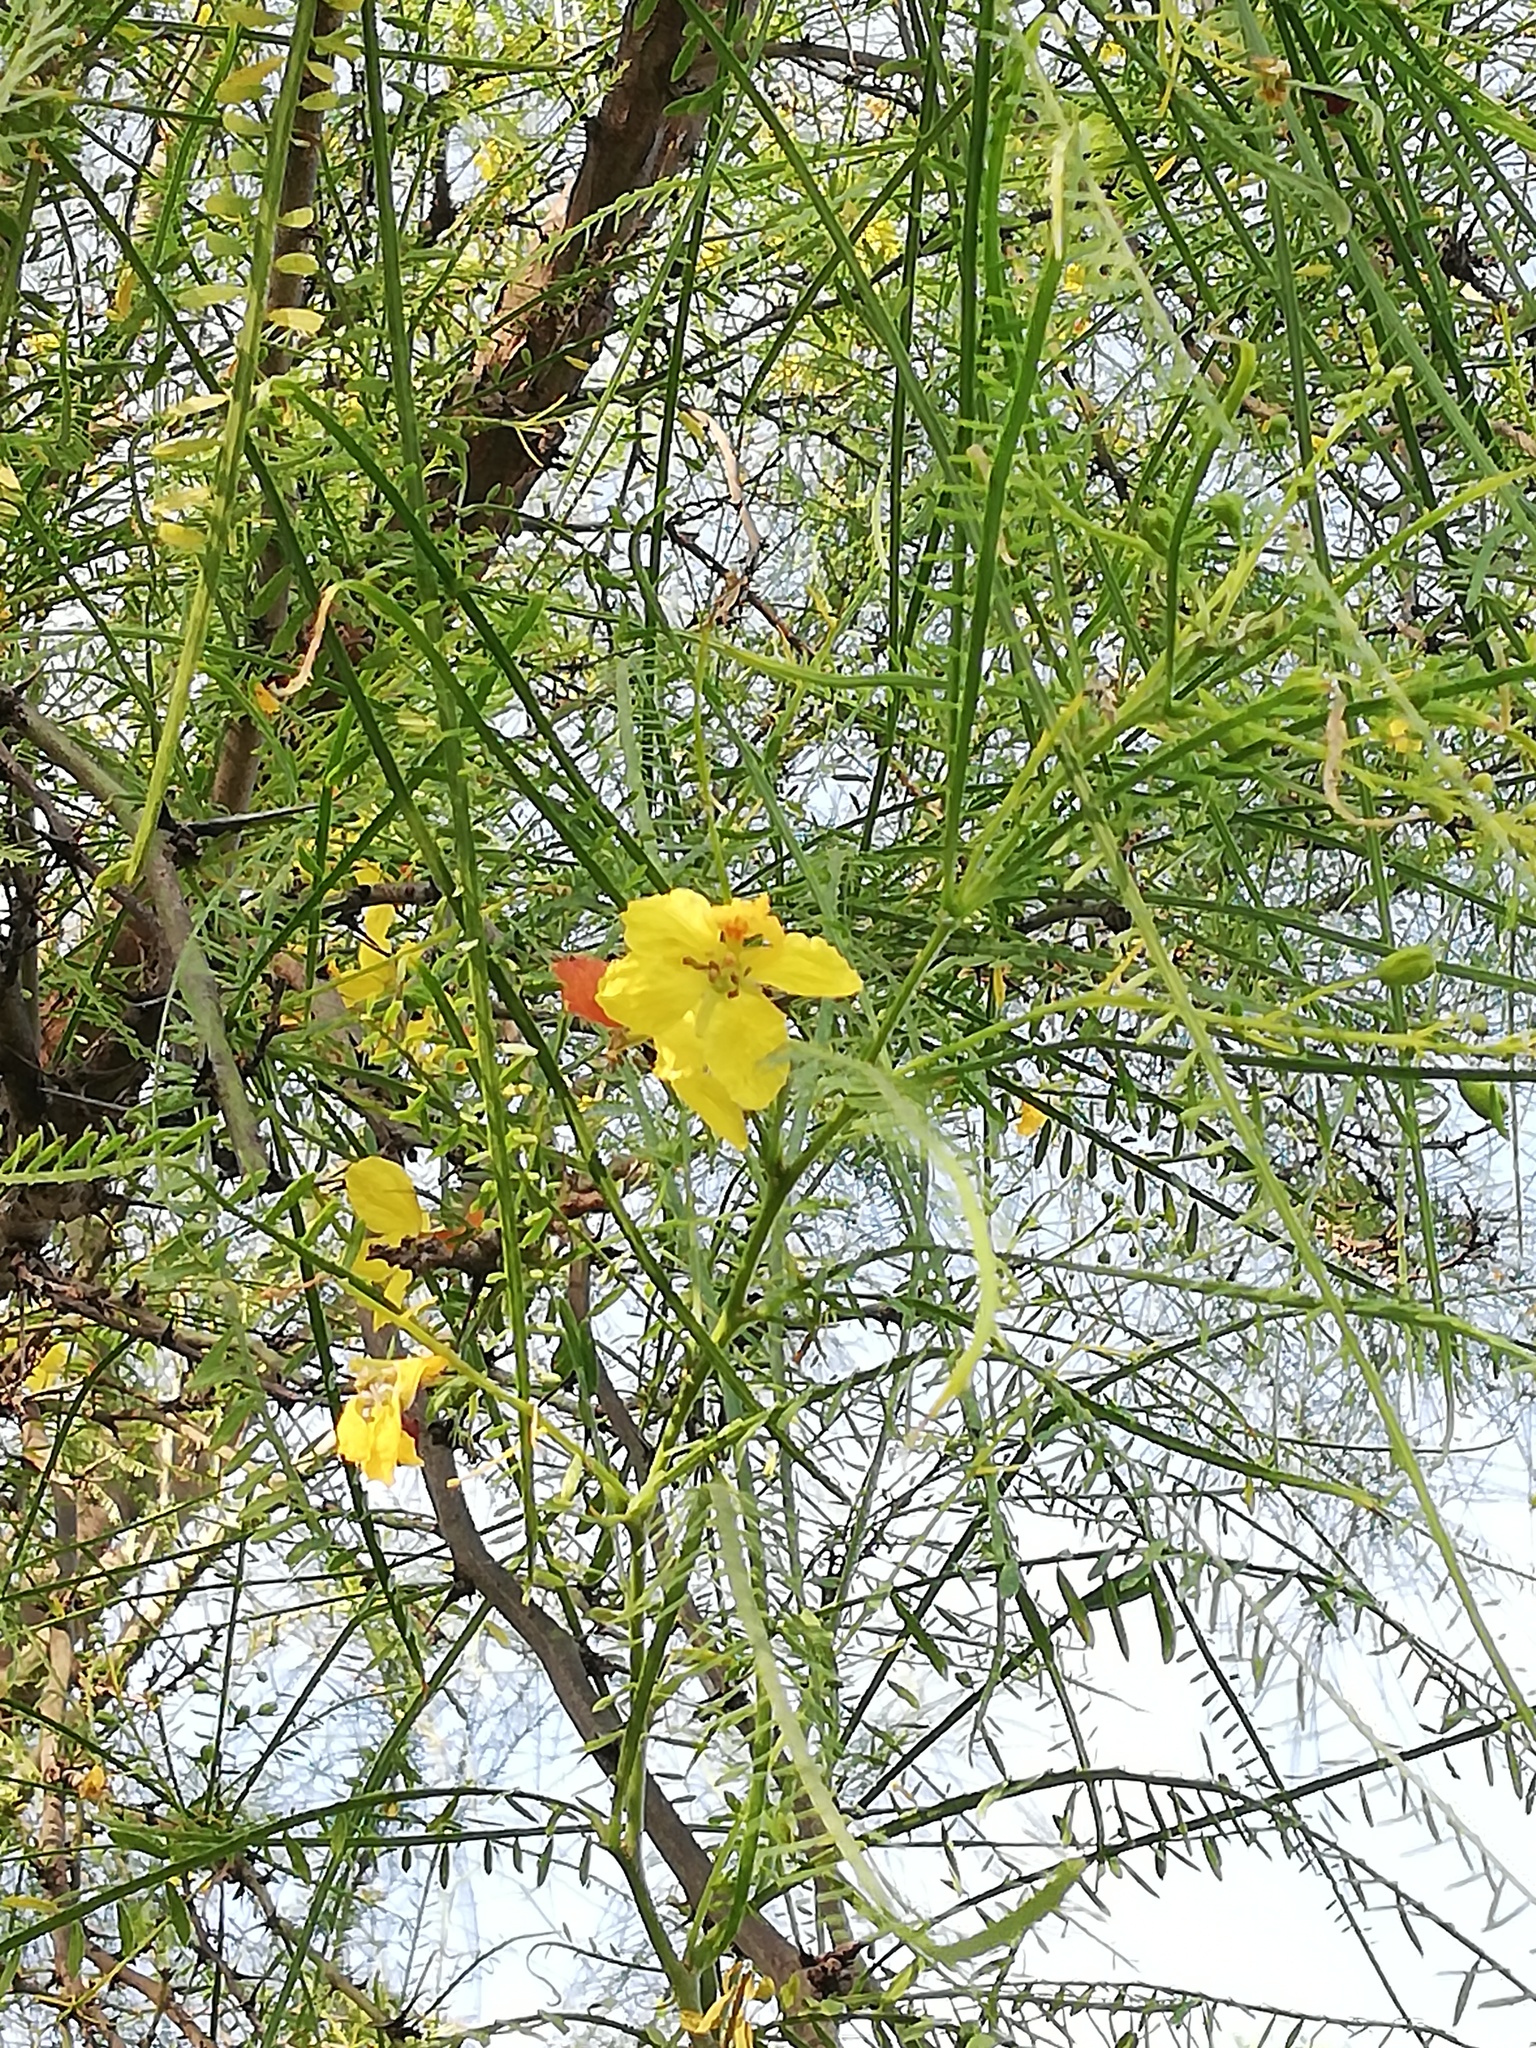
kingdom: Plantae
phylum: Tracheophyta
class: Magnoliopsida
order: Fabales
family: Fabaceae
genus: Parkinsonia
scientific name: Parkinsonia aculeata
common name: Jerusalem thorn
